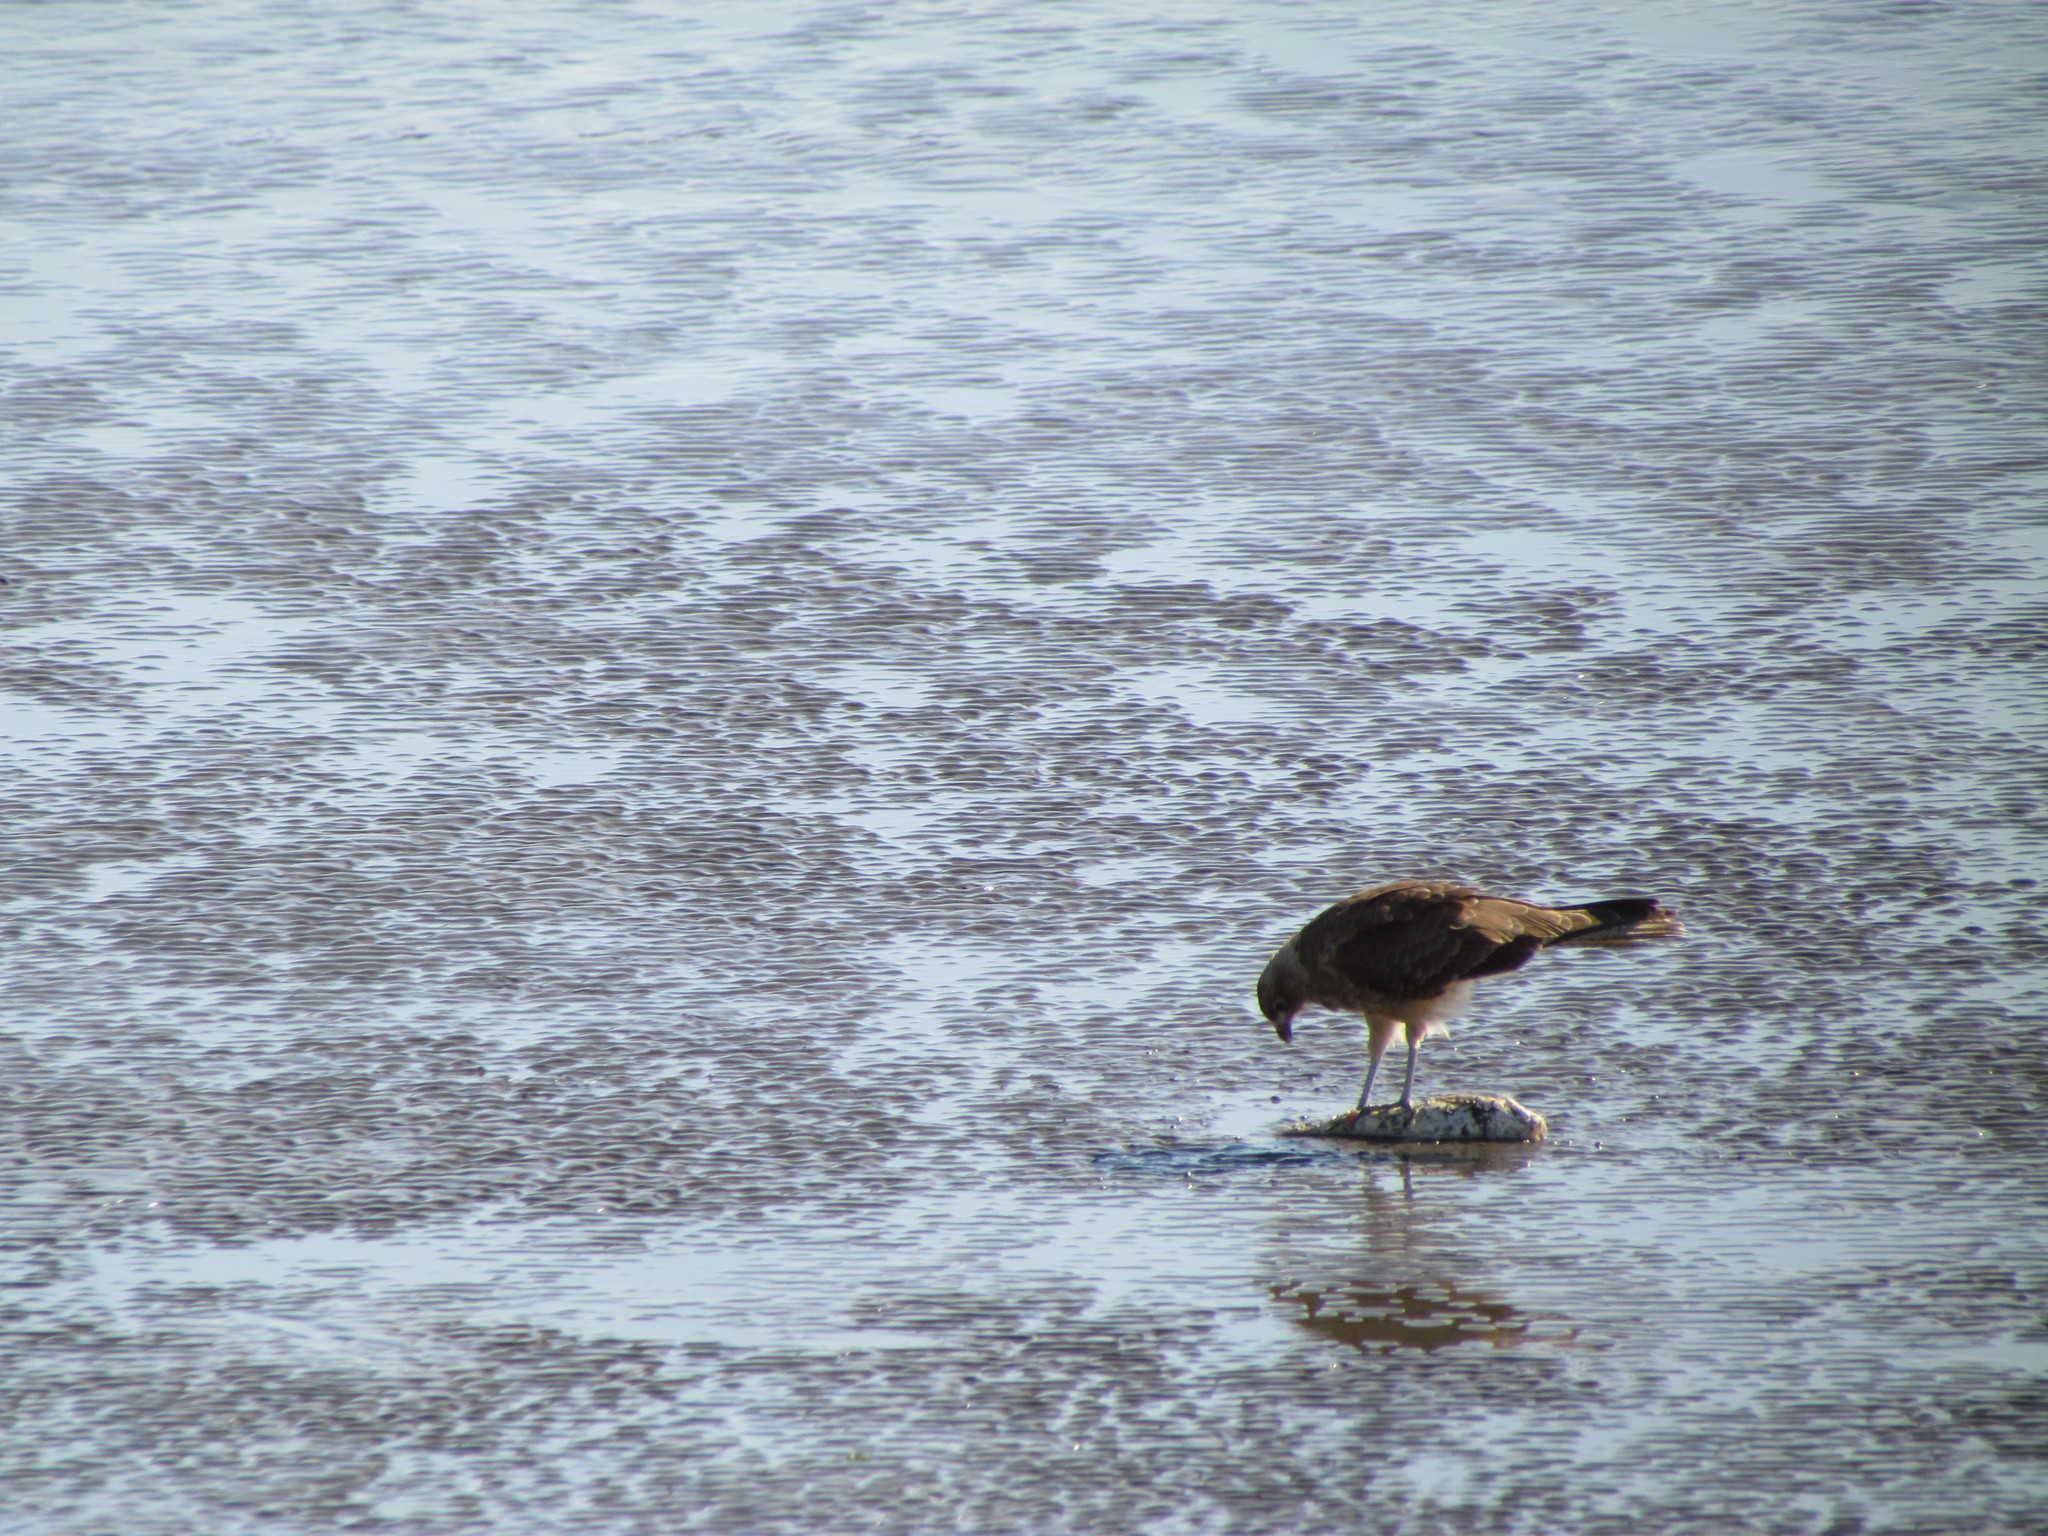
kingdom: Animalia
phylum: Chordata
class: Aves
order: Falconiformes
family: Falconidae
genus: Daptrius
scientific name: Daptrius
